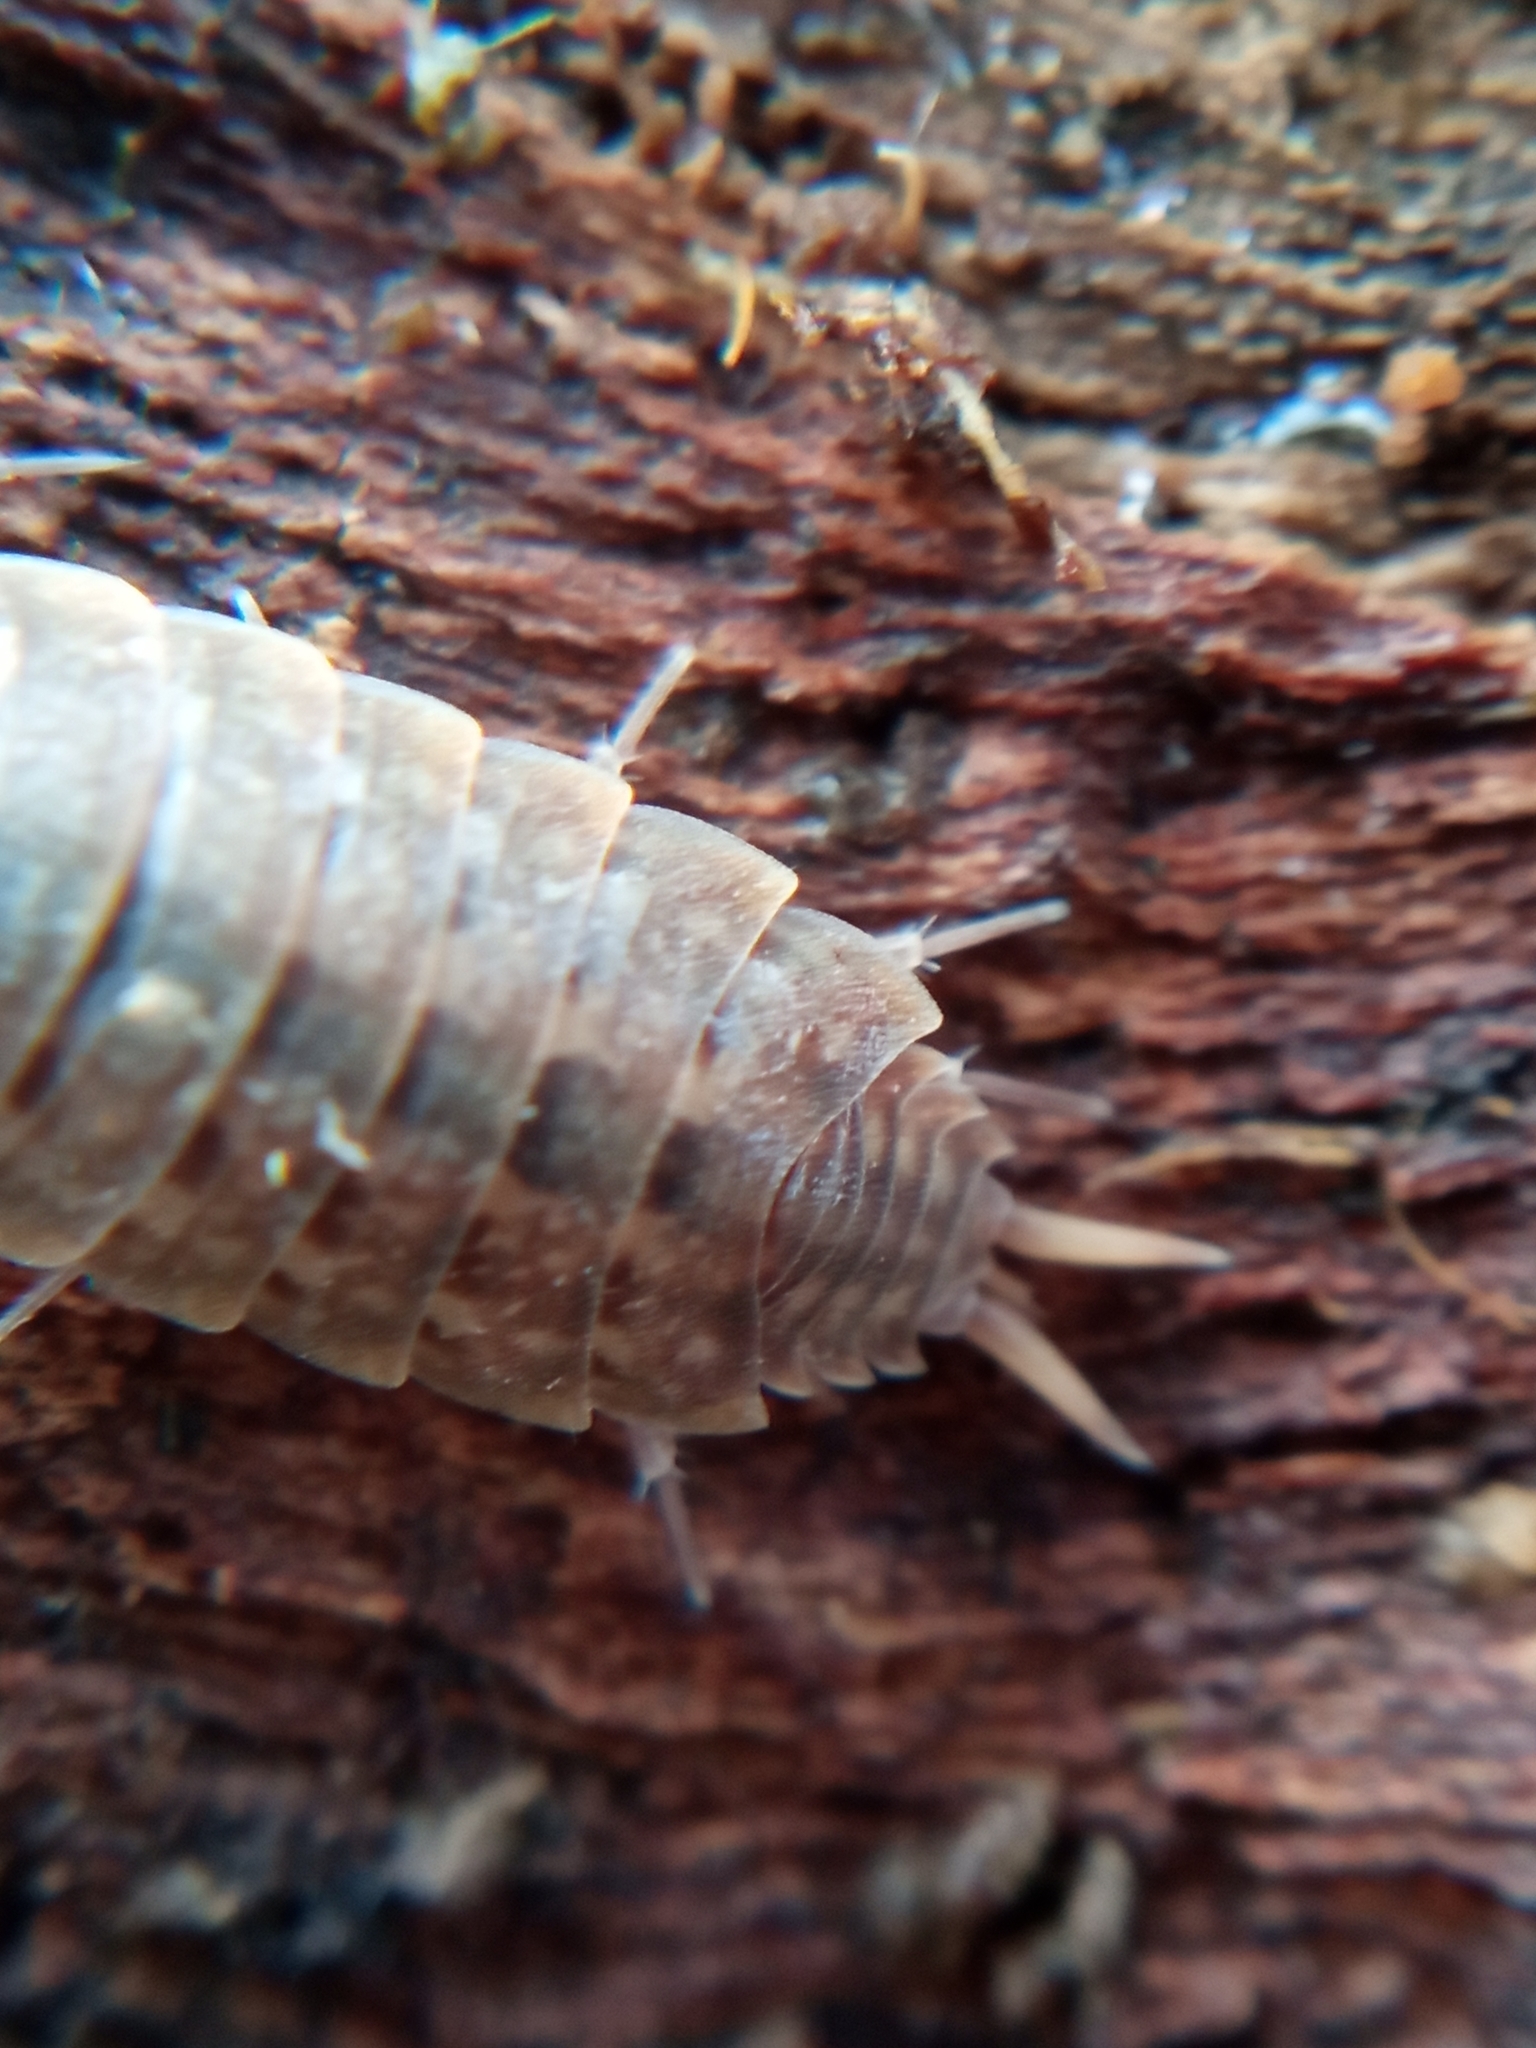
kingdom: Animalia
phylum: Arthropoda
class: Malacostraca
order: Isopoda
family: Agnaridae
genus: Orthometopon
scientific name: Orthometopon planum
